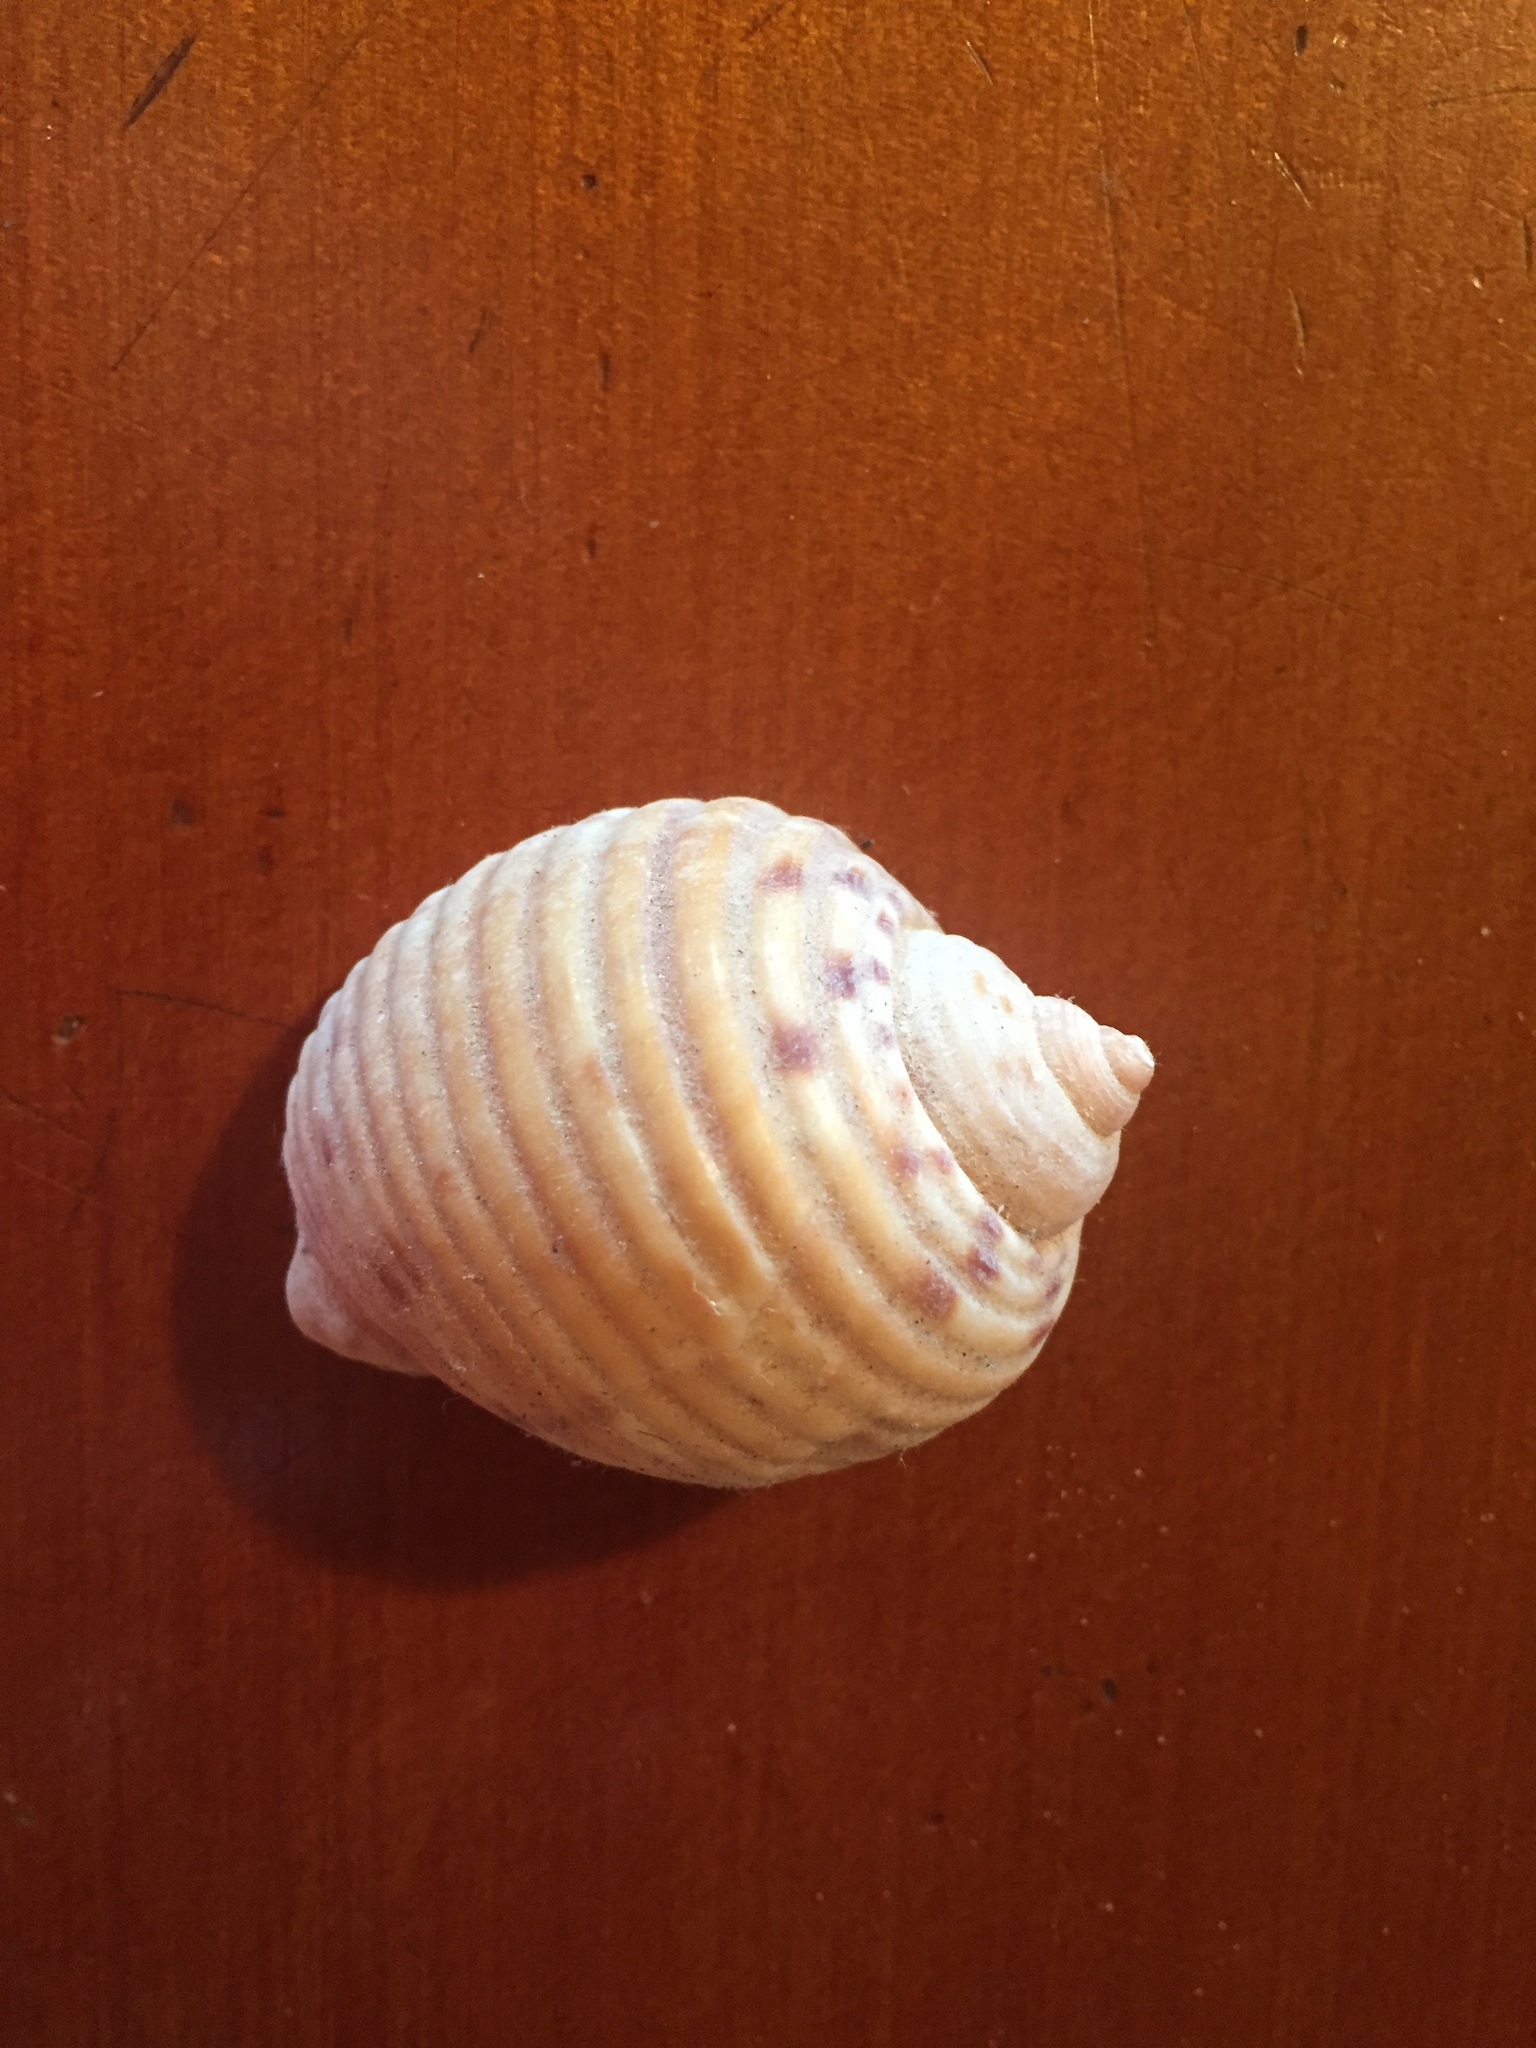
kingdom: Animalia
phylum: Mollusca
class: Gastropoda
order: Littorinimorpha
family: Tonnidae
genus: Tonna
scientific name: Tonna tankervillii
